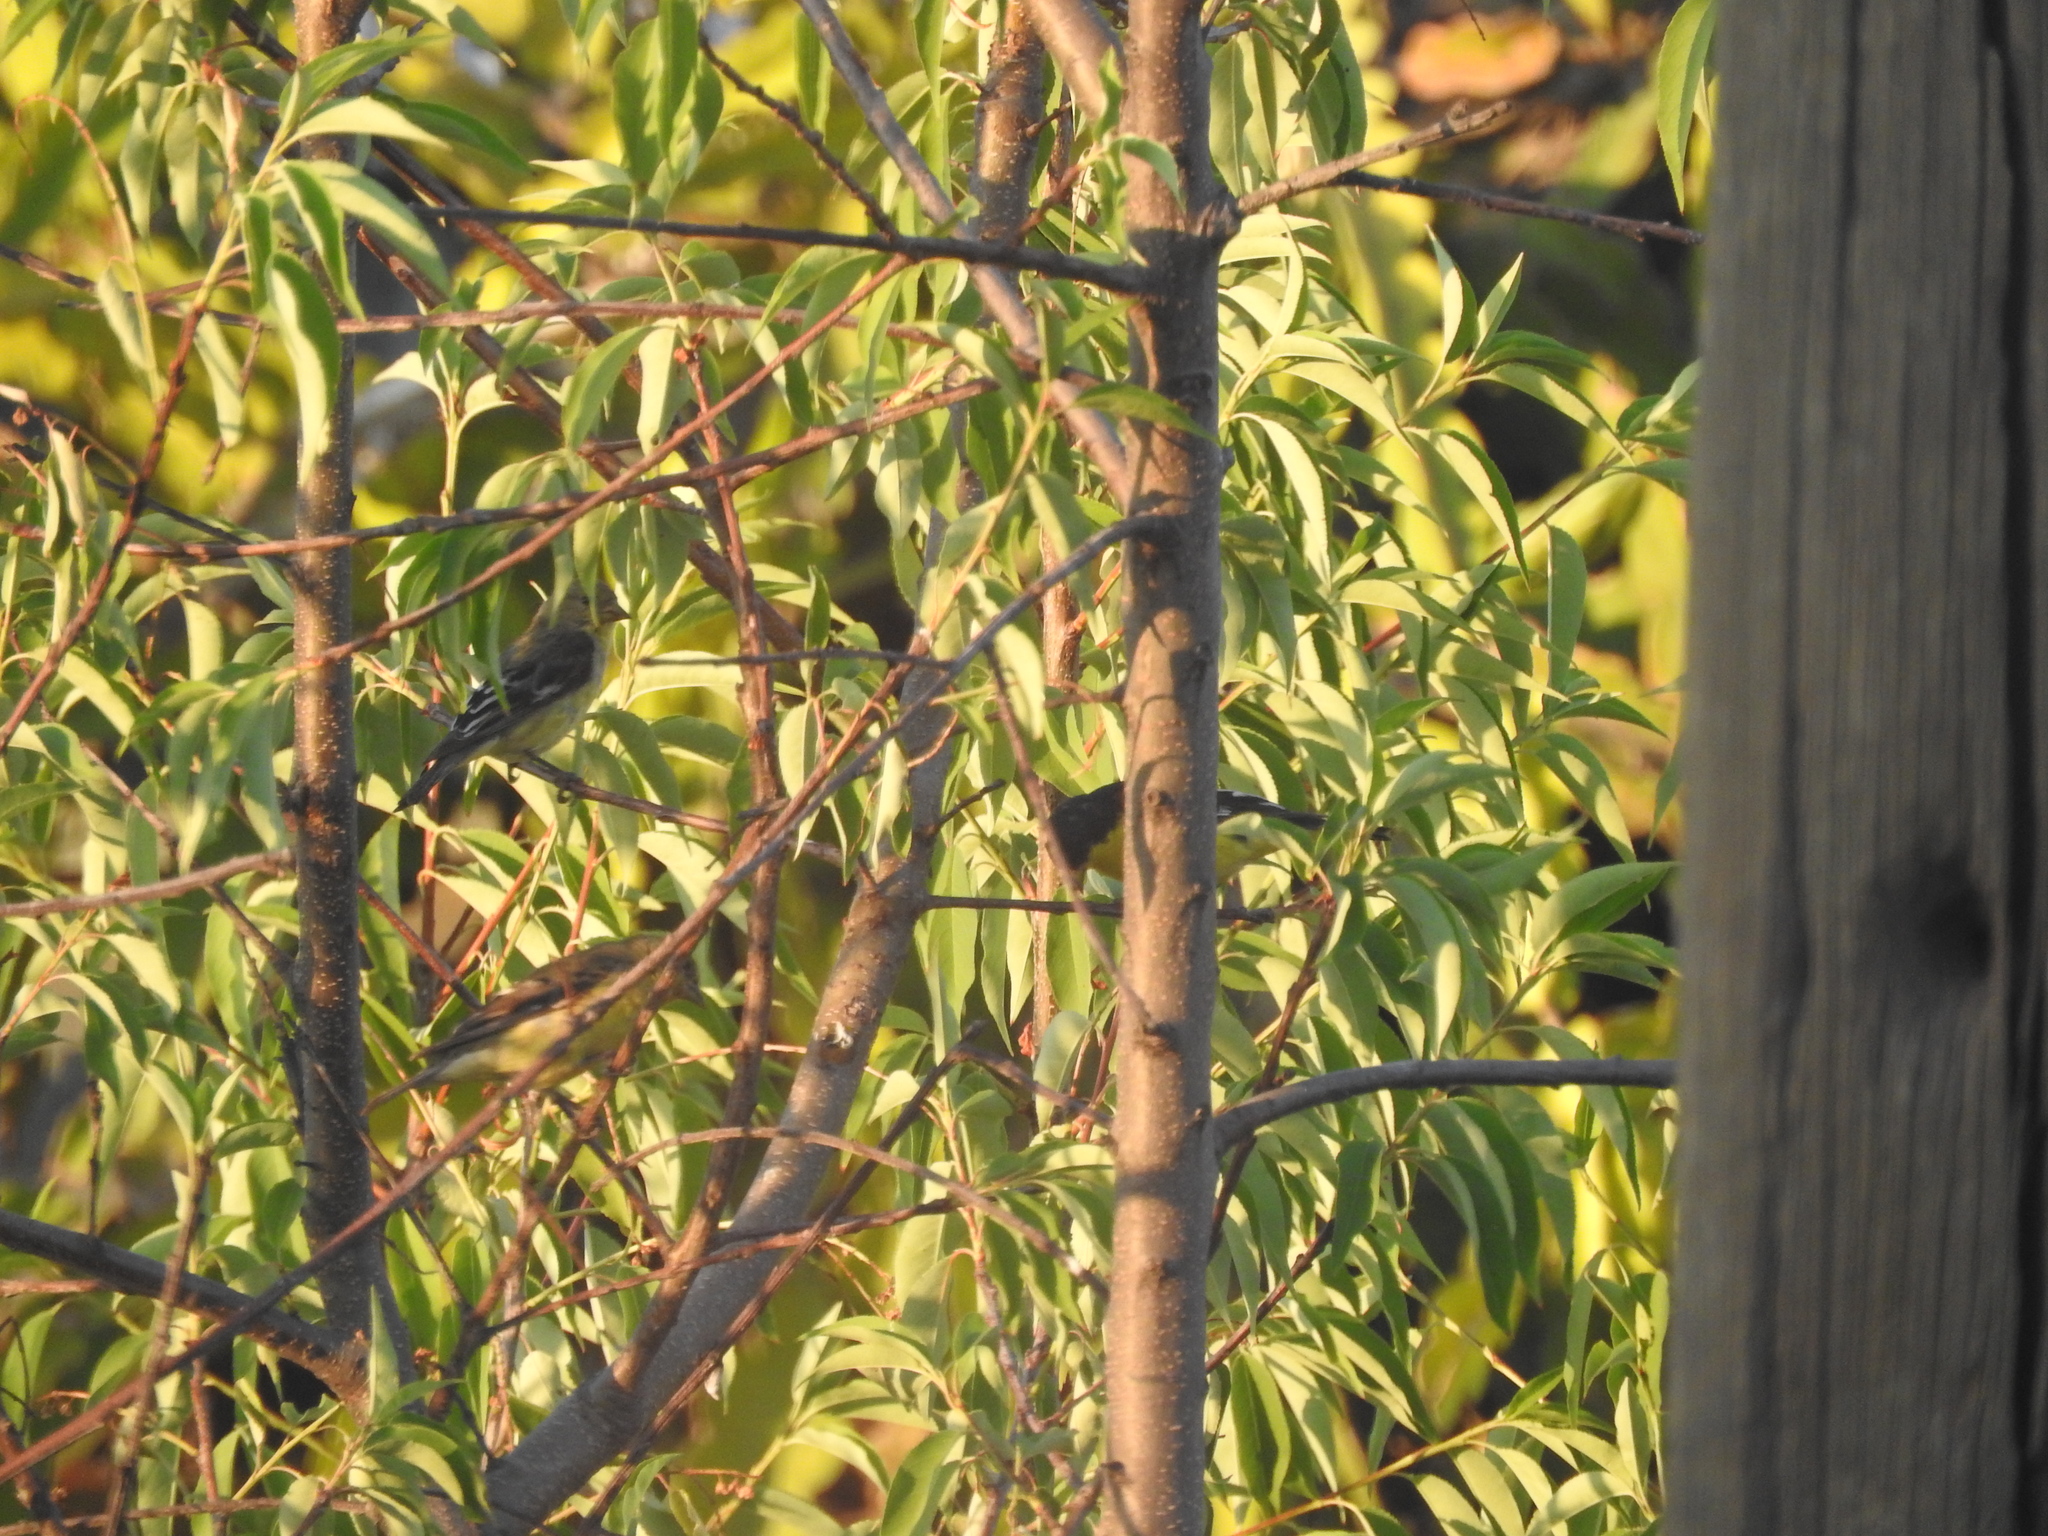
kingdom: Animalia
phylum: Chordata
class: Aves
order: Passeriformes
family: Fringillidae
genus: Spinus
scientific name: Spinus psaltria
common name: Lesser goldfinch
